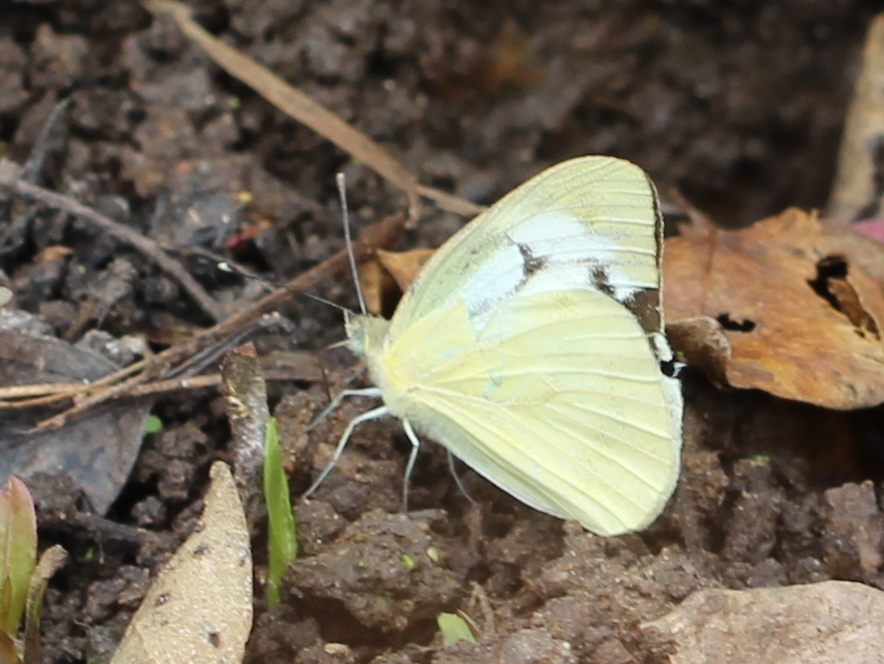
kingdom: Animalia
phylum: Arthropoda
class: Insecta
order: Lepidoptera
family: Pieridae
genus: Cepora
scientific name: Cepora nerissa
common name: Common gull
